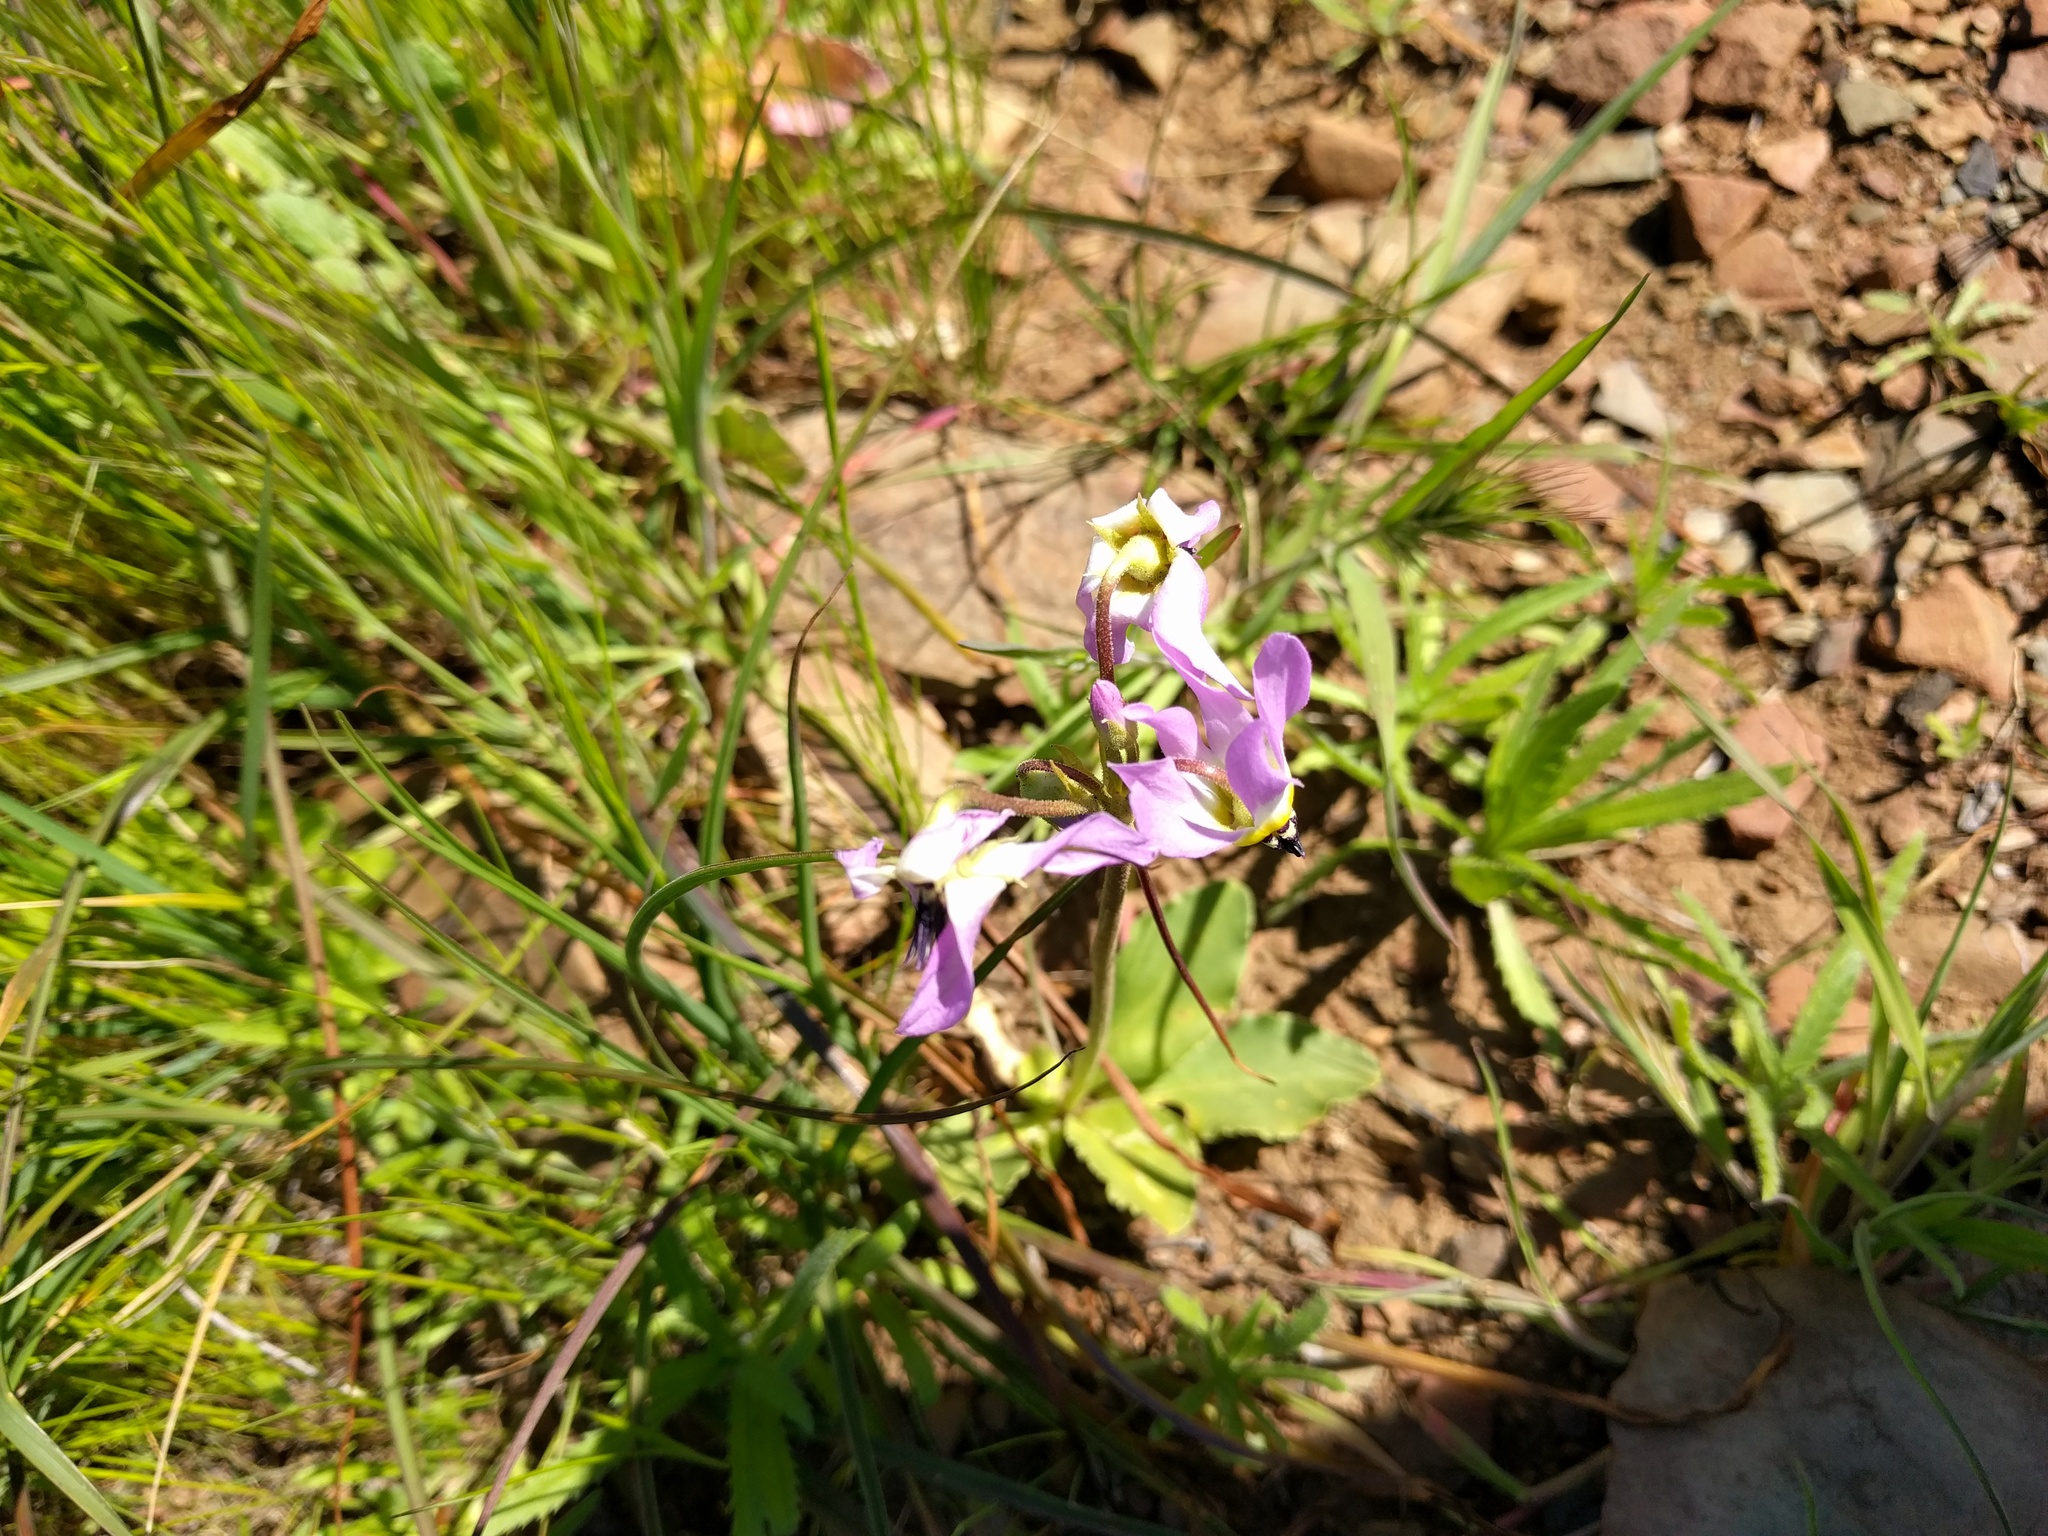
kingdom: Plantae
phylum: Tracheophyta
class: Magnoliopsida
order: Ericales
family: Primulaceae
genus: Dodecatheon
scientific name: Dodecatheon clevelandii
